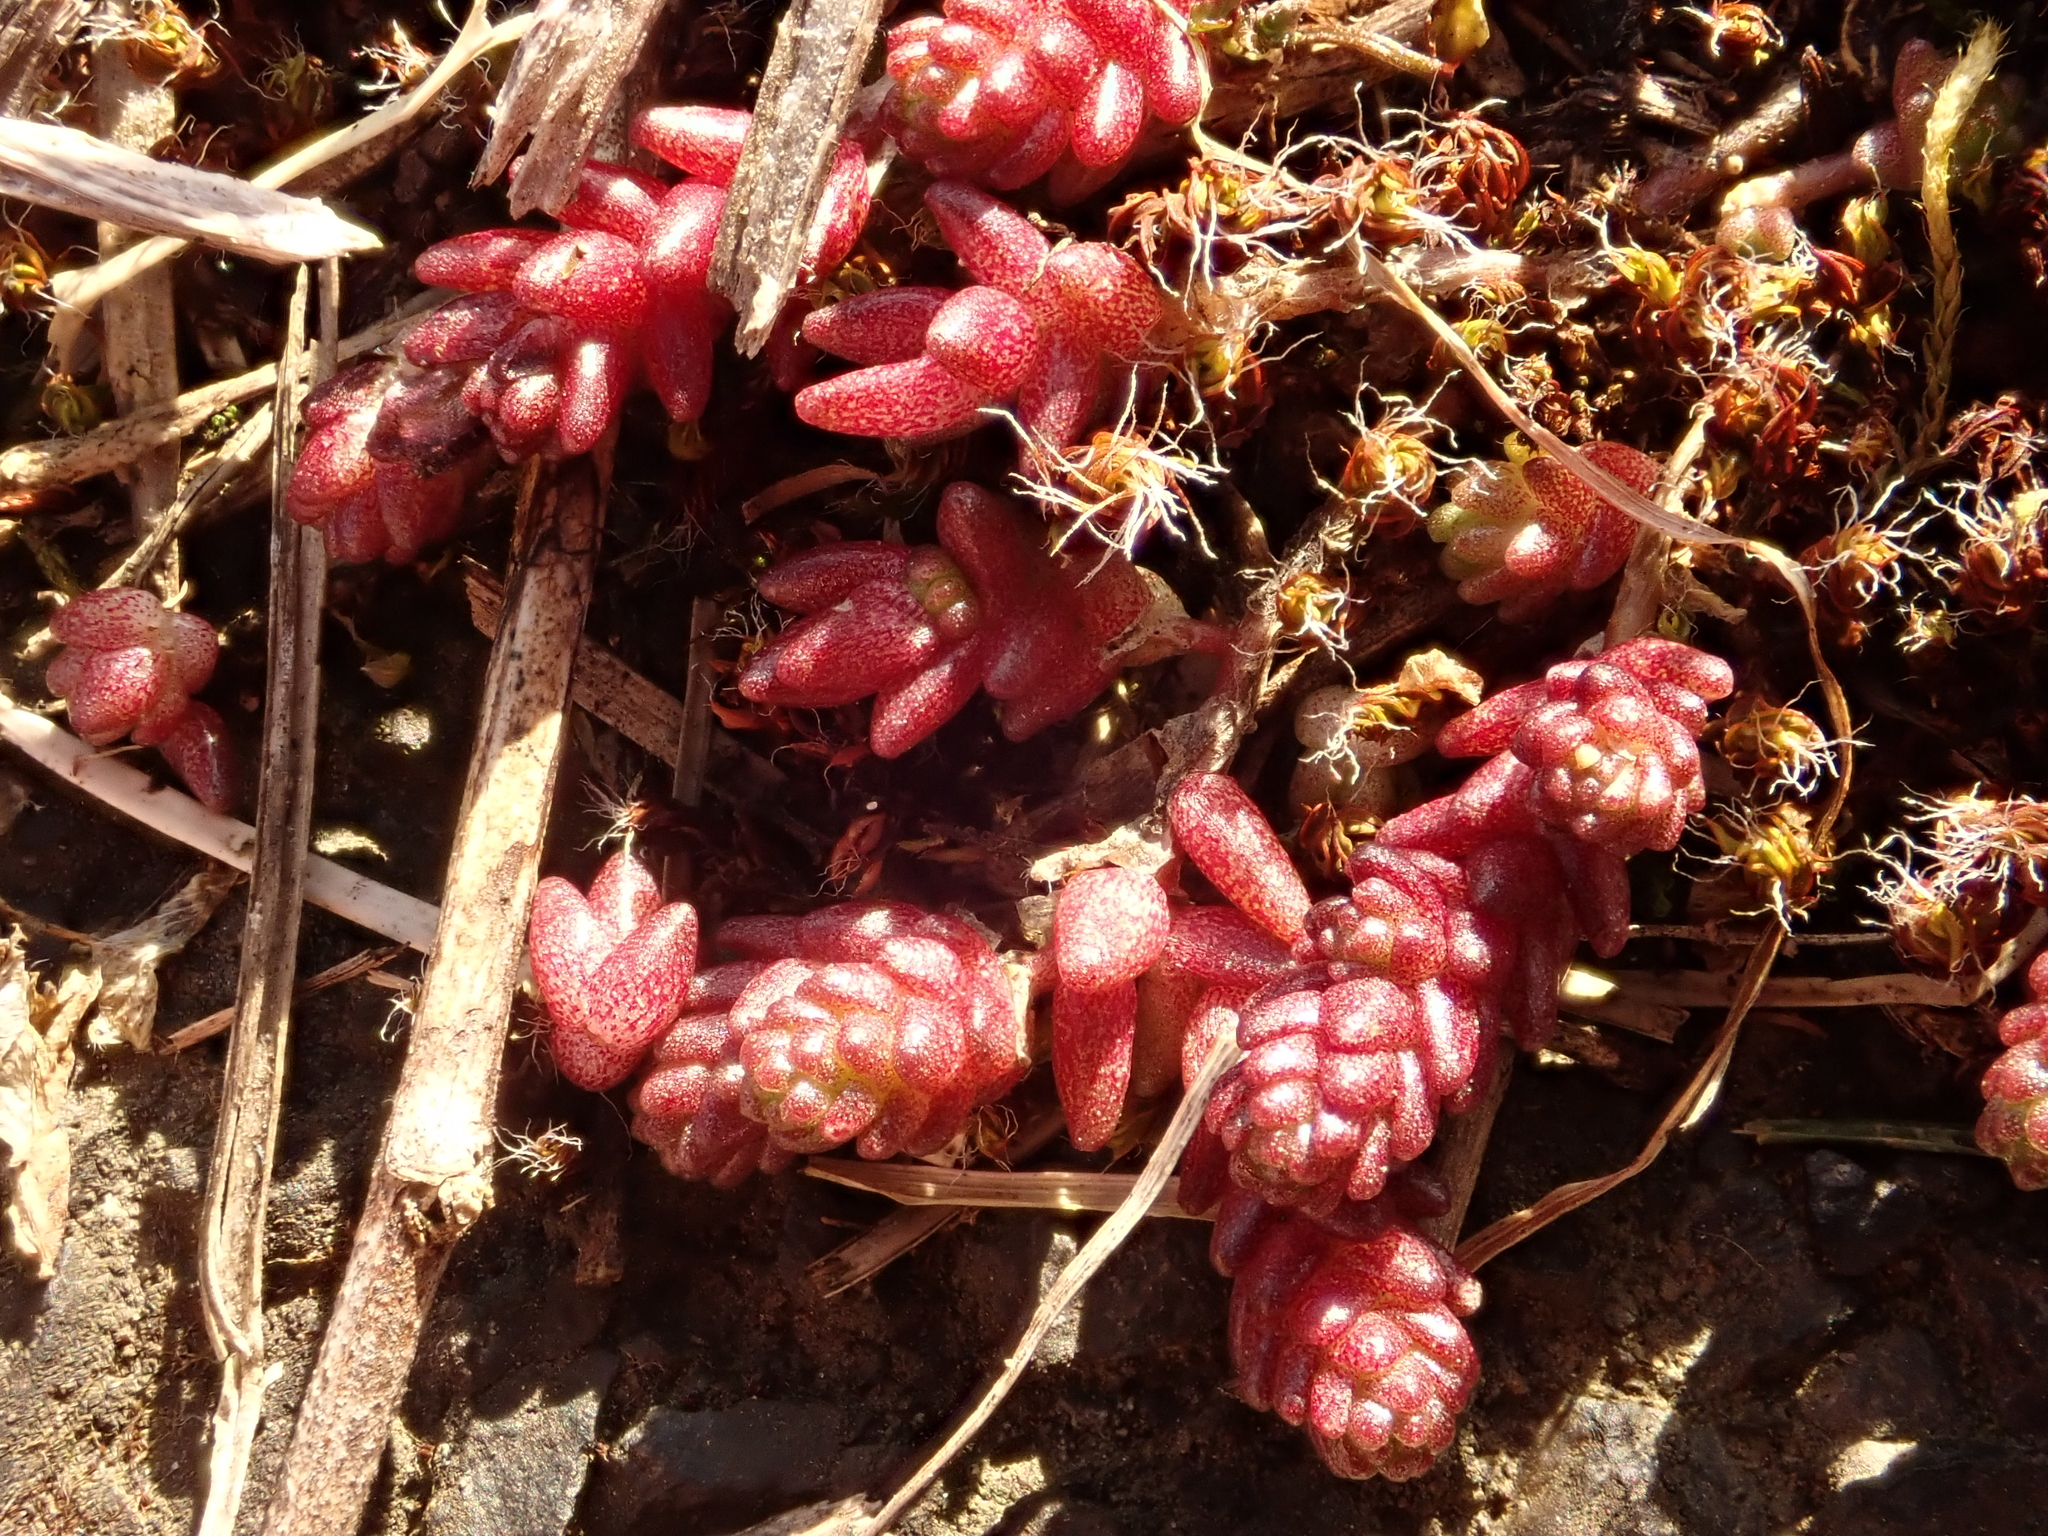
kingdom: Plantae
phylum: Tracheophyta
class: Magnoliopsida
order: Saxifragales
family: Crassulaceae
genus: Sedum
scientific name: Sedum acre
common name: Biting stonecrop
